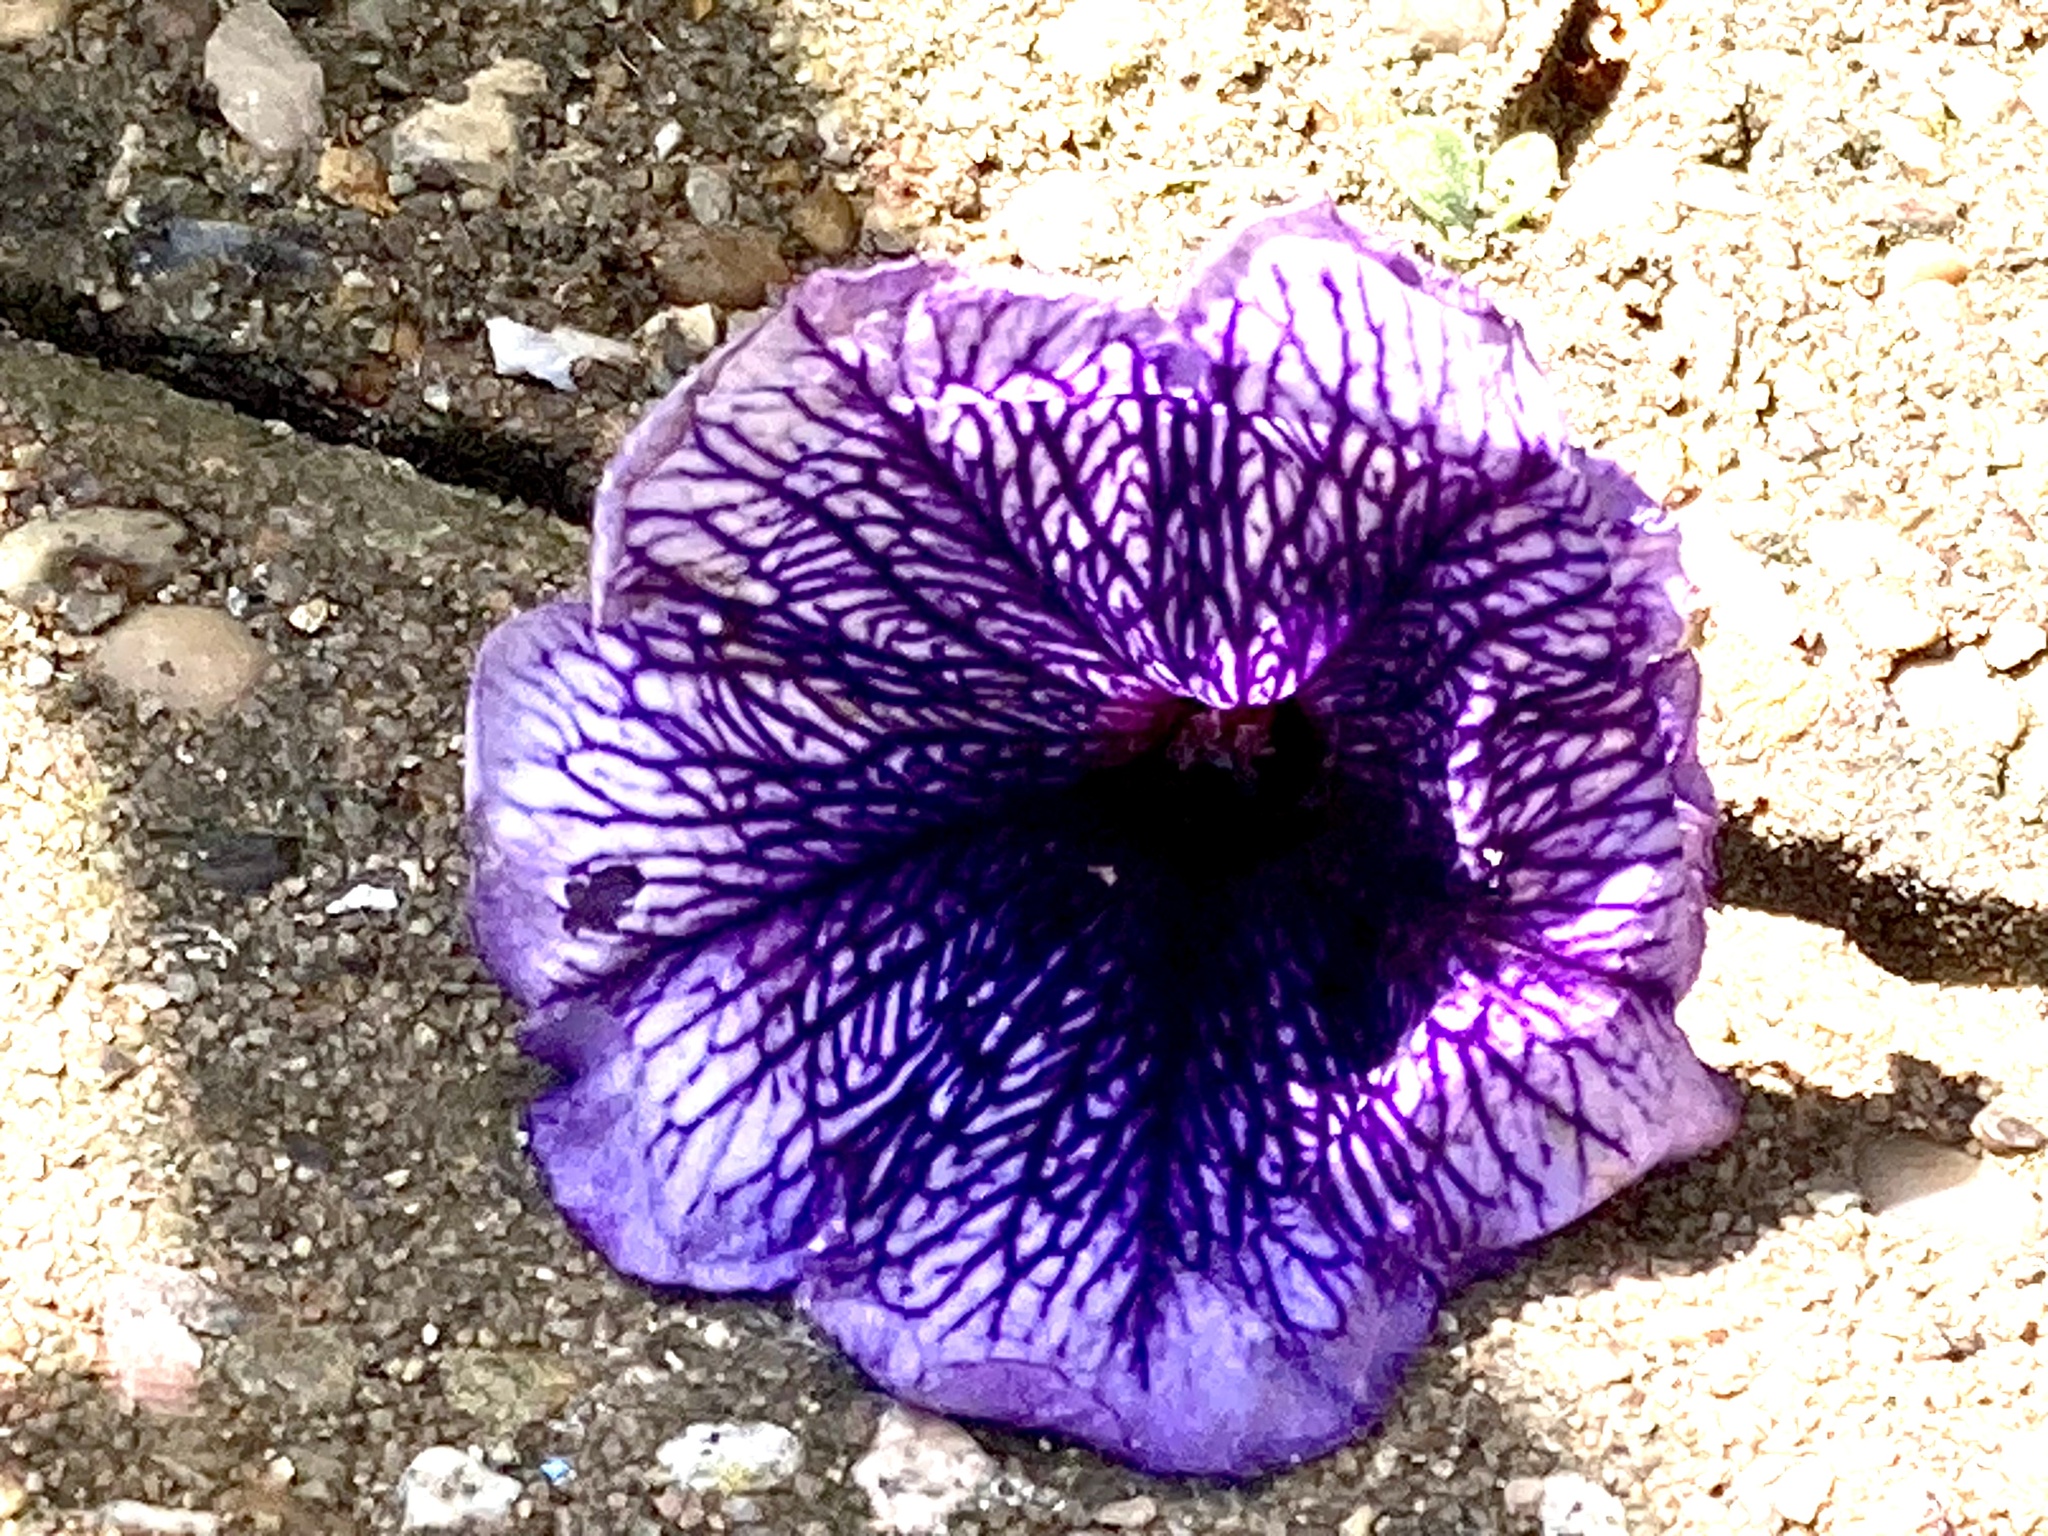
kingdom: Plantae
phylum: Tracheophyta
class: Magnoliopsida
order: Solanales
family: Solanaceae
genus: Petunia
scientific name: Petunia atkinsiana
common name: Petunia
